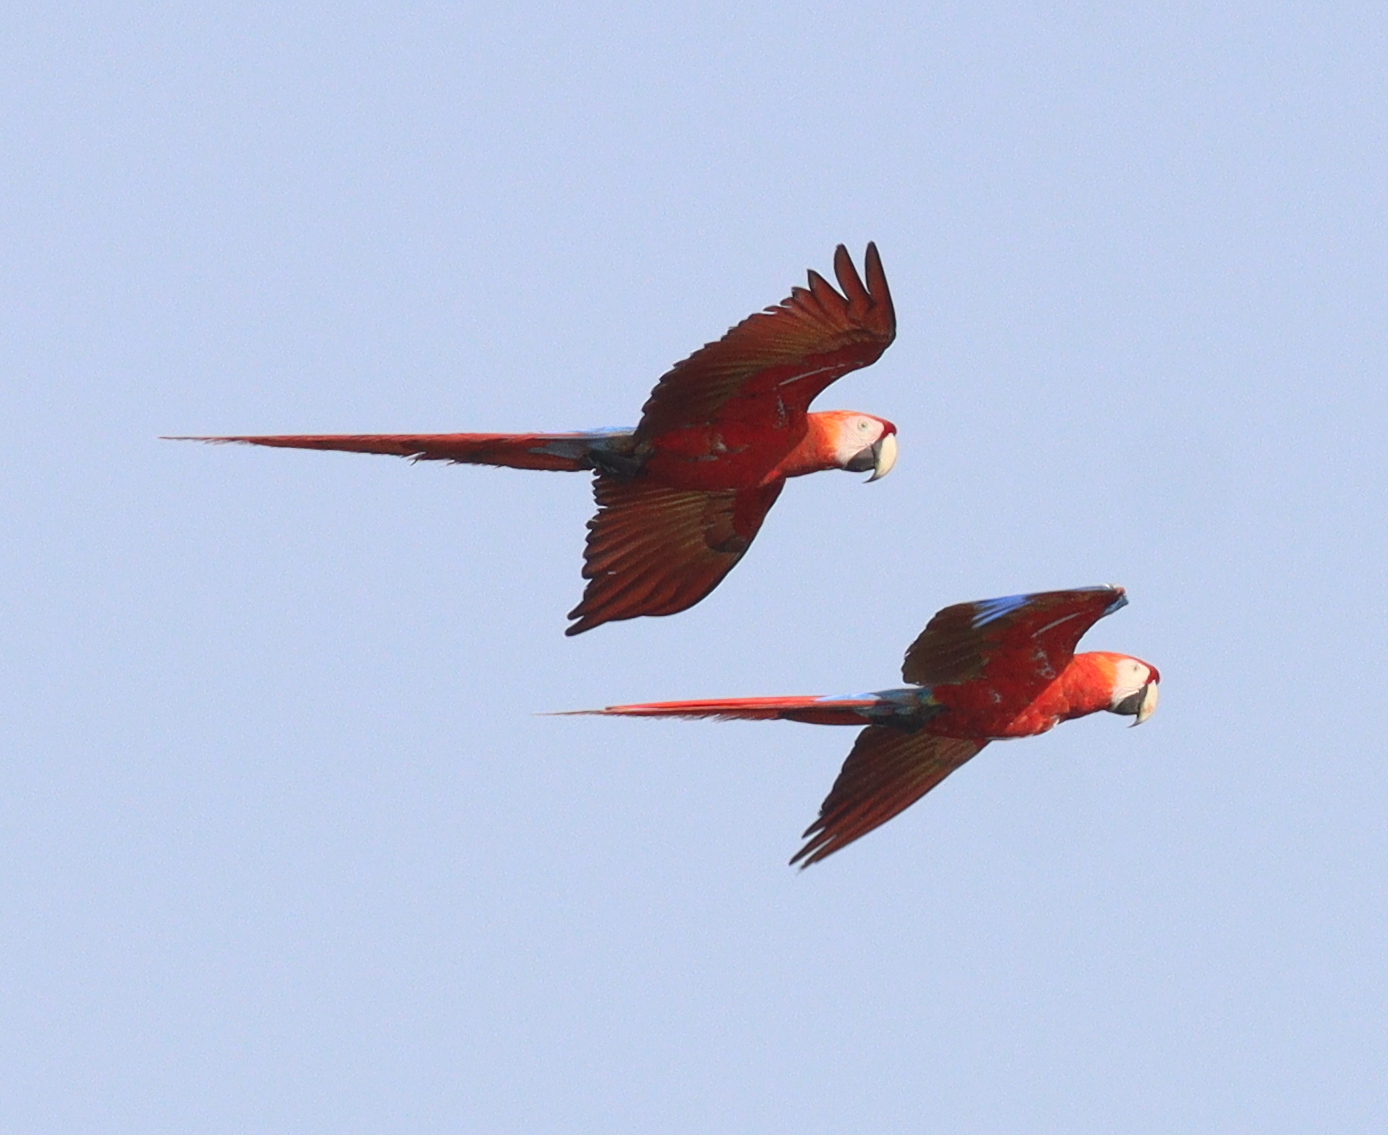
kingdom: Animalia
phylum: Chordata
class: Aves
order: Psittaciformes
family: Psittacidae
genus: Ara
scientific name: Ara macao
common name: Scarlet macaw
